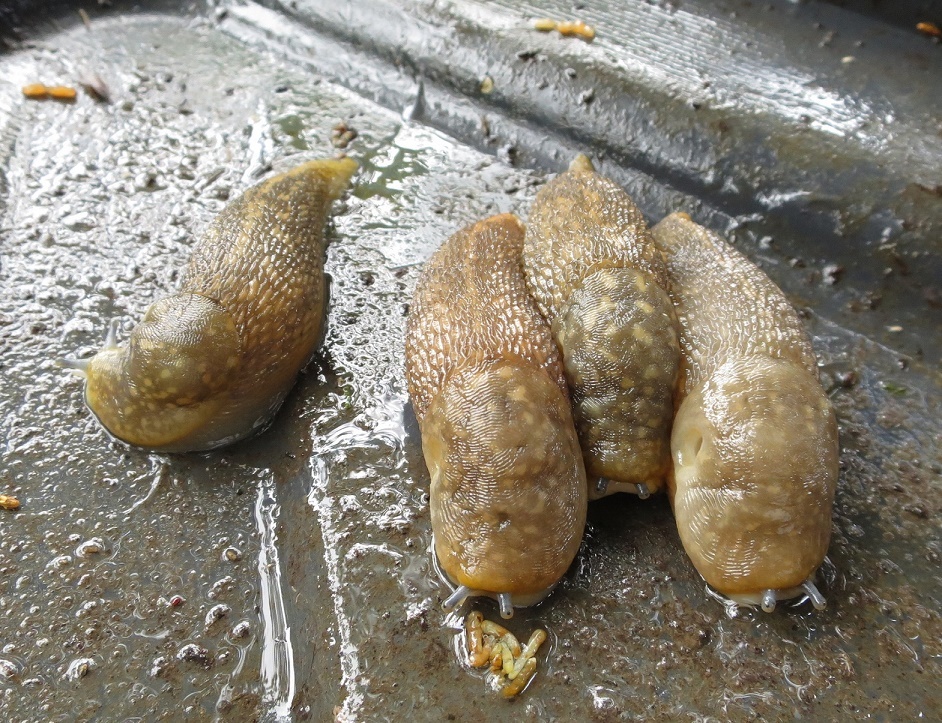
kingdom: Animalia
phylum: Mollusca
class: Gastropoda
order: Stylommatophora
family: Limacidae
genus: Limacus
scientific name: Limacus flavus
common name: Yellow gardenslug
